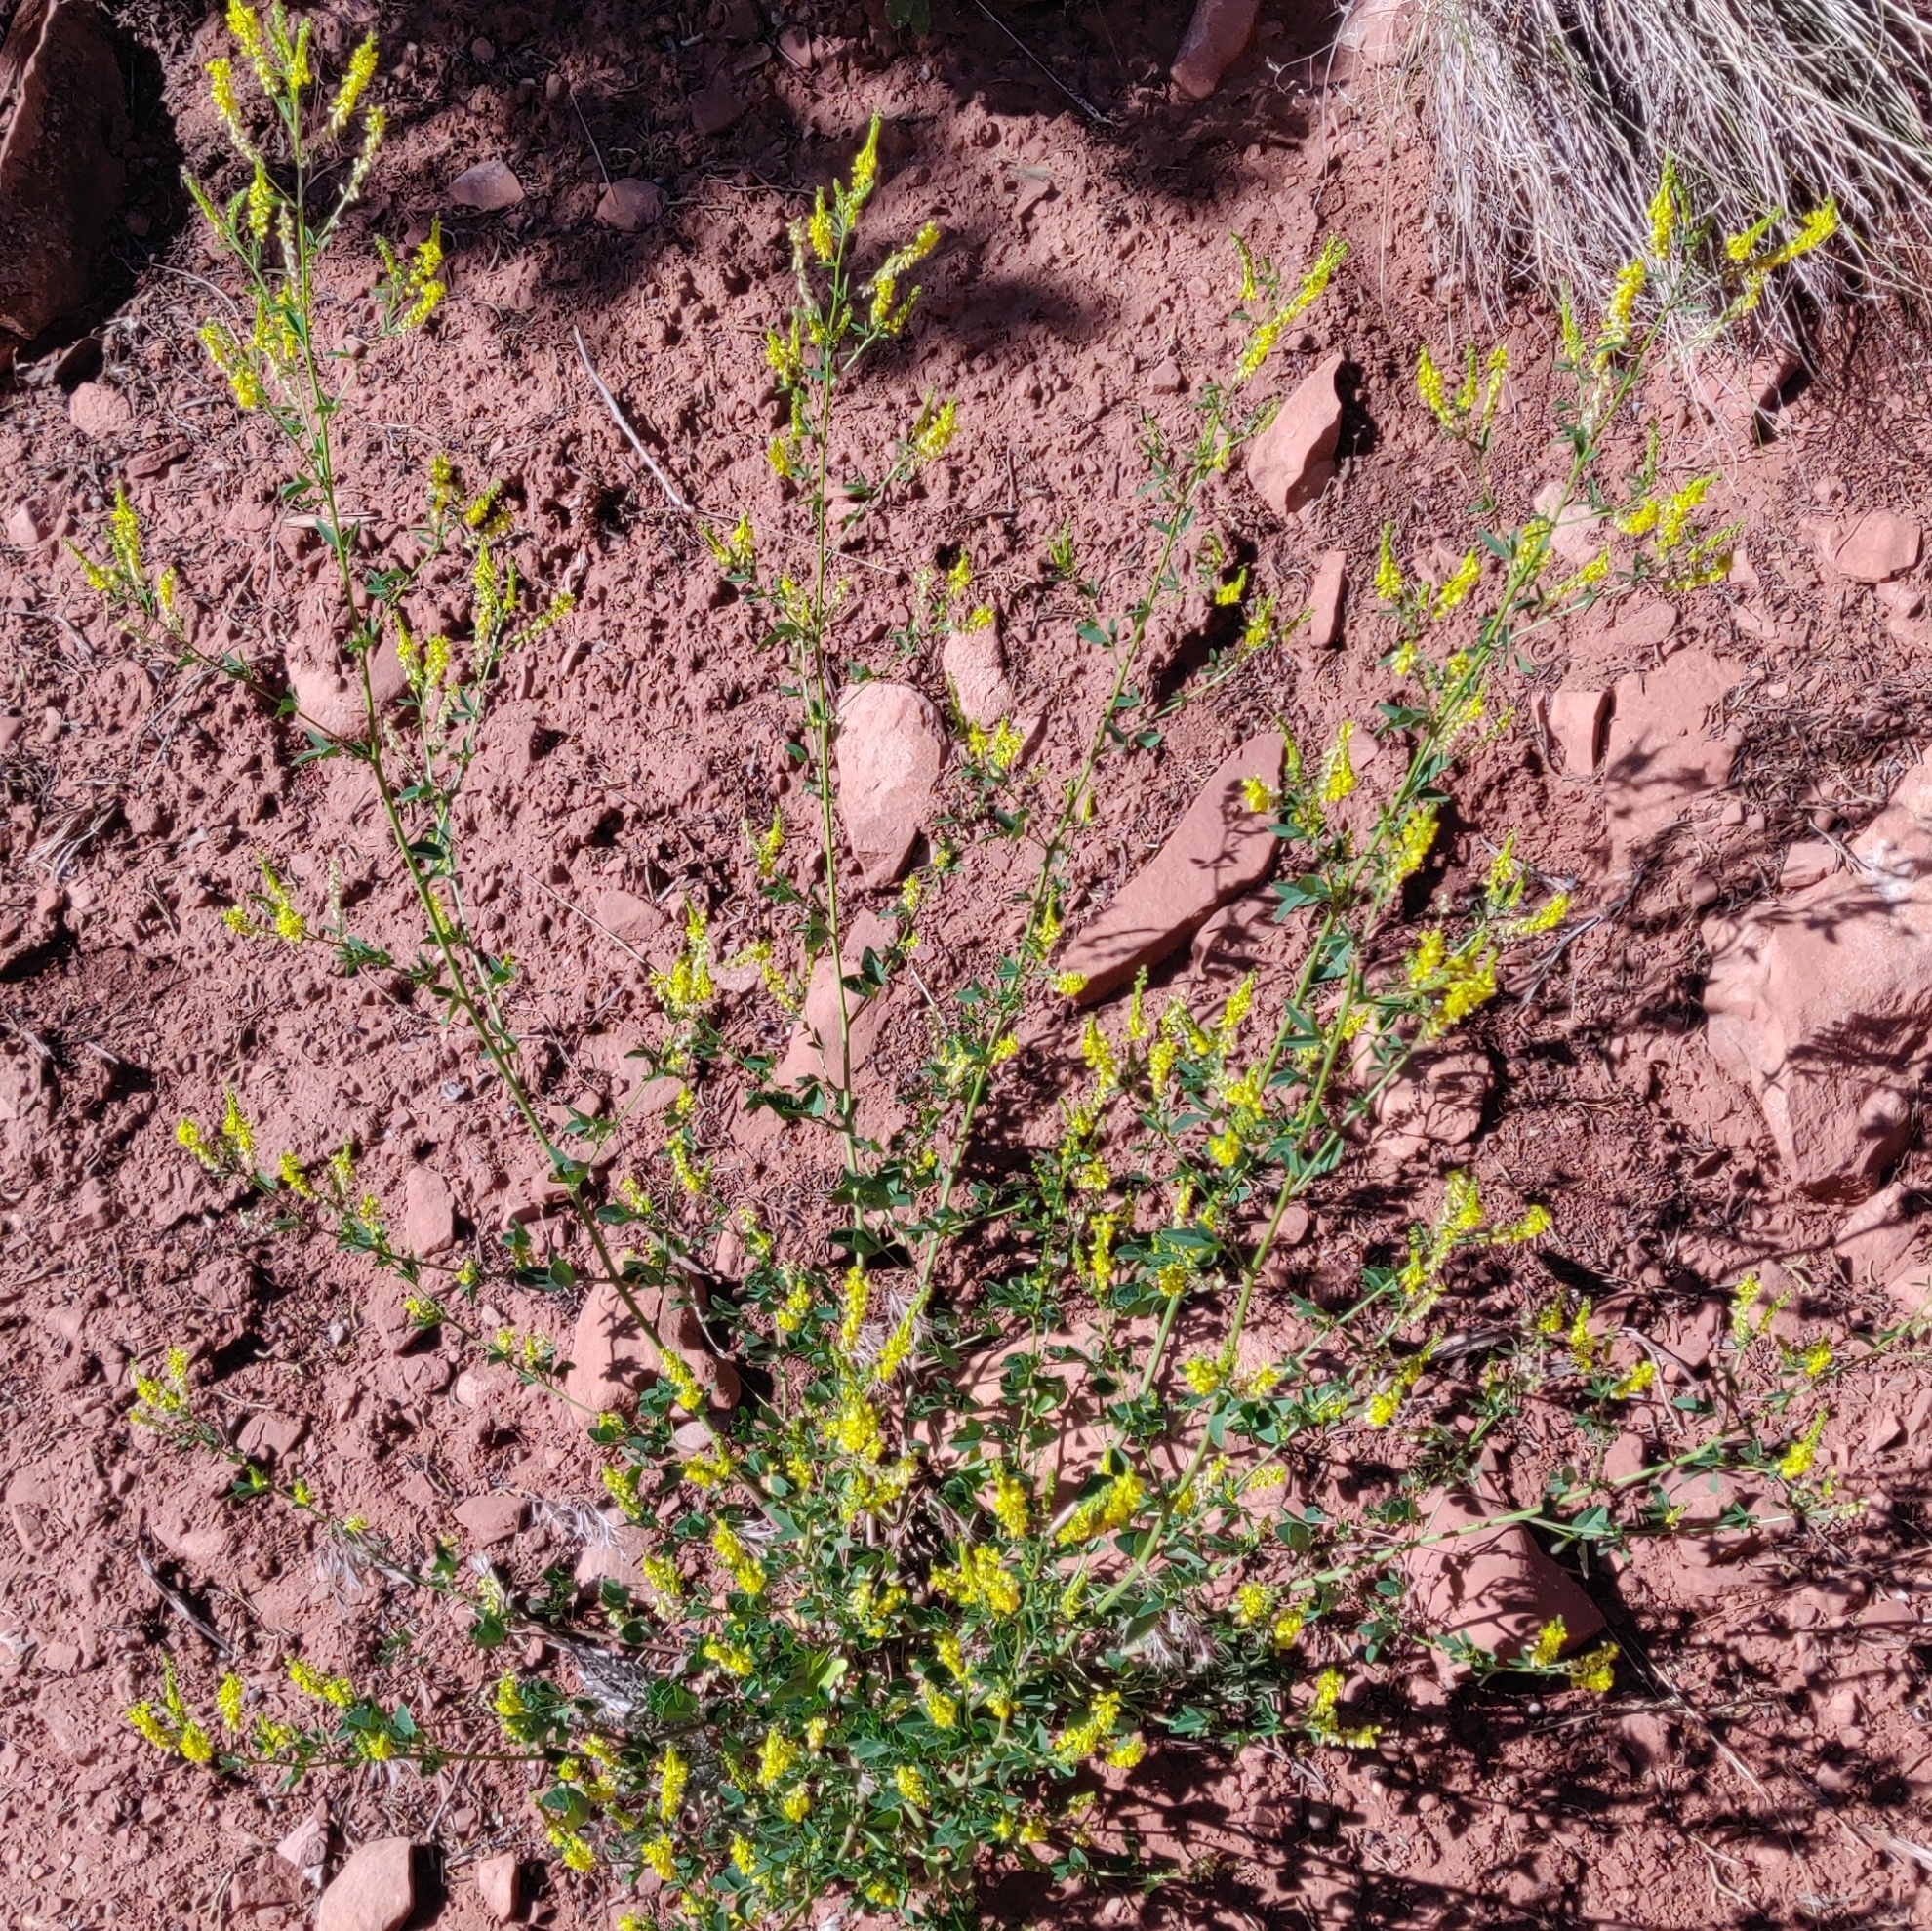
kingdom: Plantae
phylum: Tracheophyta
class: Magnoliopsida
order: Fabales
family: Fabaceae
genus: Melilotus
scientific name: Melilotus officinalis
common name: Sweetclover
